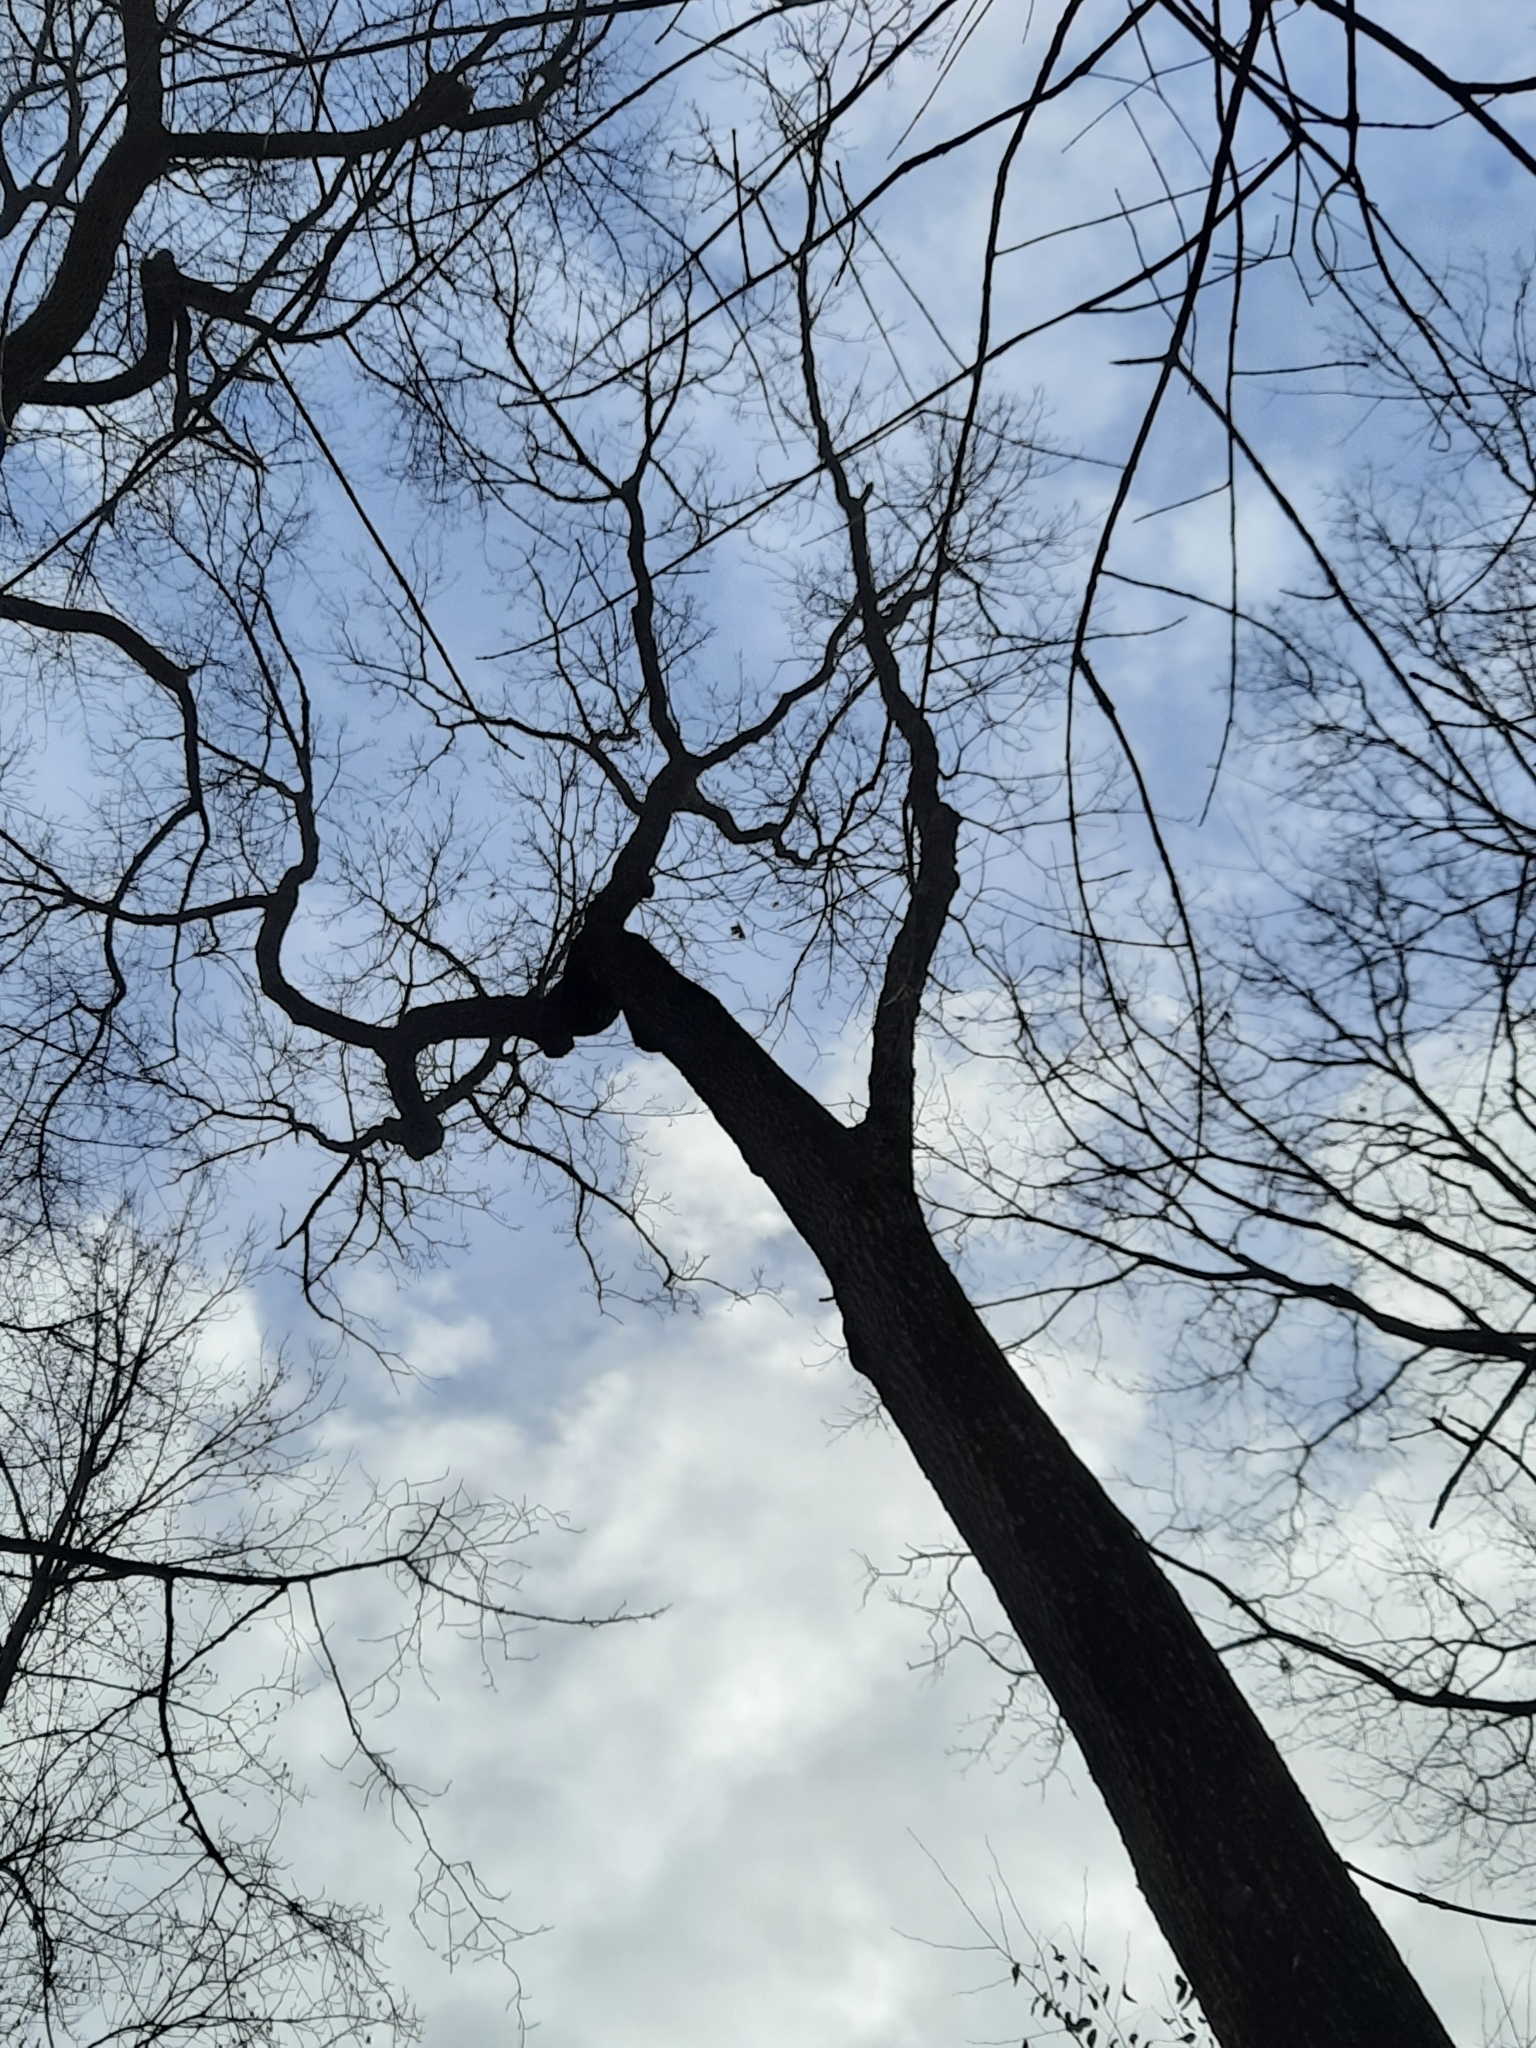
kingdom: Plantae
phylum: Tracheophyta
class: Magnoliopsida
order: Fagales
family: Fagaceae
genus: Quercus
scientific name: Quercus velutina
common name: Black oak
